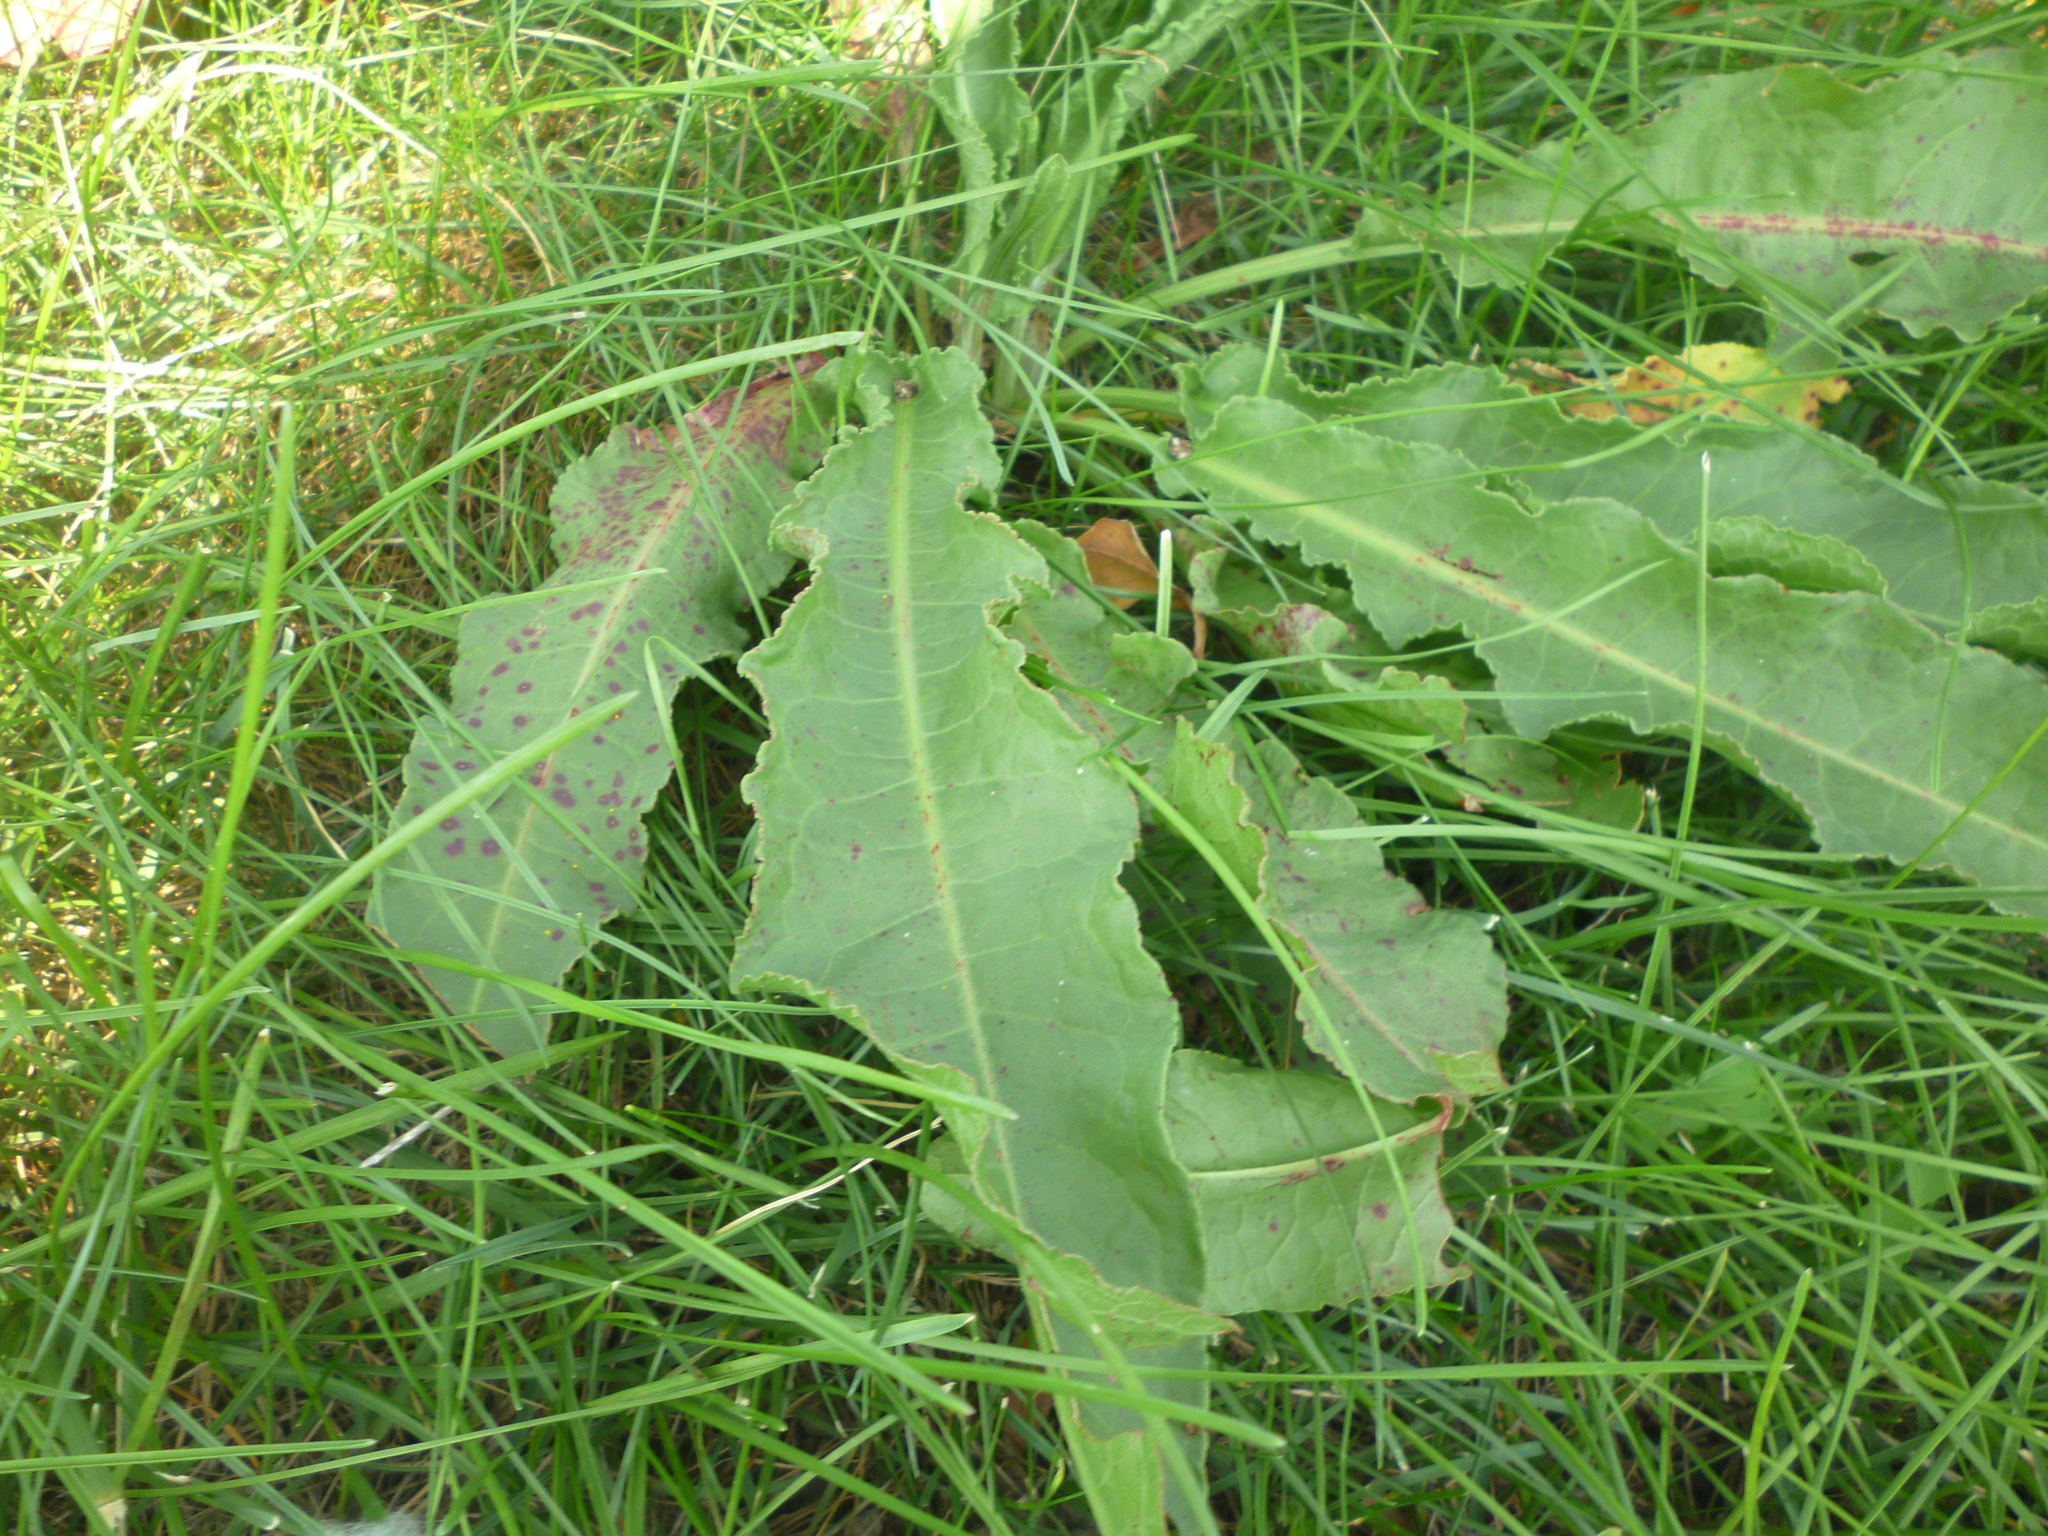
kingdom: Plantae
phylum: Tracheophyta
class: Magnoliopsida
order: Caryophyllales
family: Polygonaceae
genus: Rumex
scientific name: Rumex crispus
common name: Curled dock
